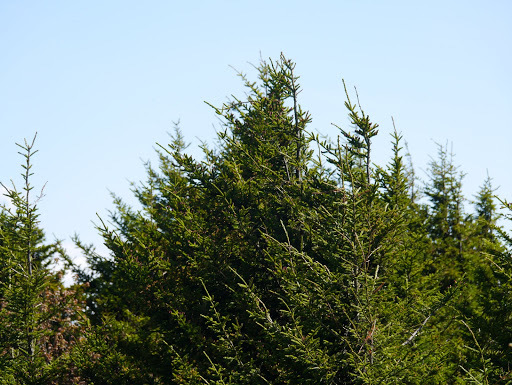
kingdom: Plantae
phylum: Tracheophyta
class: Pinopsida
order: Pinales
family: Pinaceae
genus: Picea
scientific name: Picea rubens
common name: Red spruce
